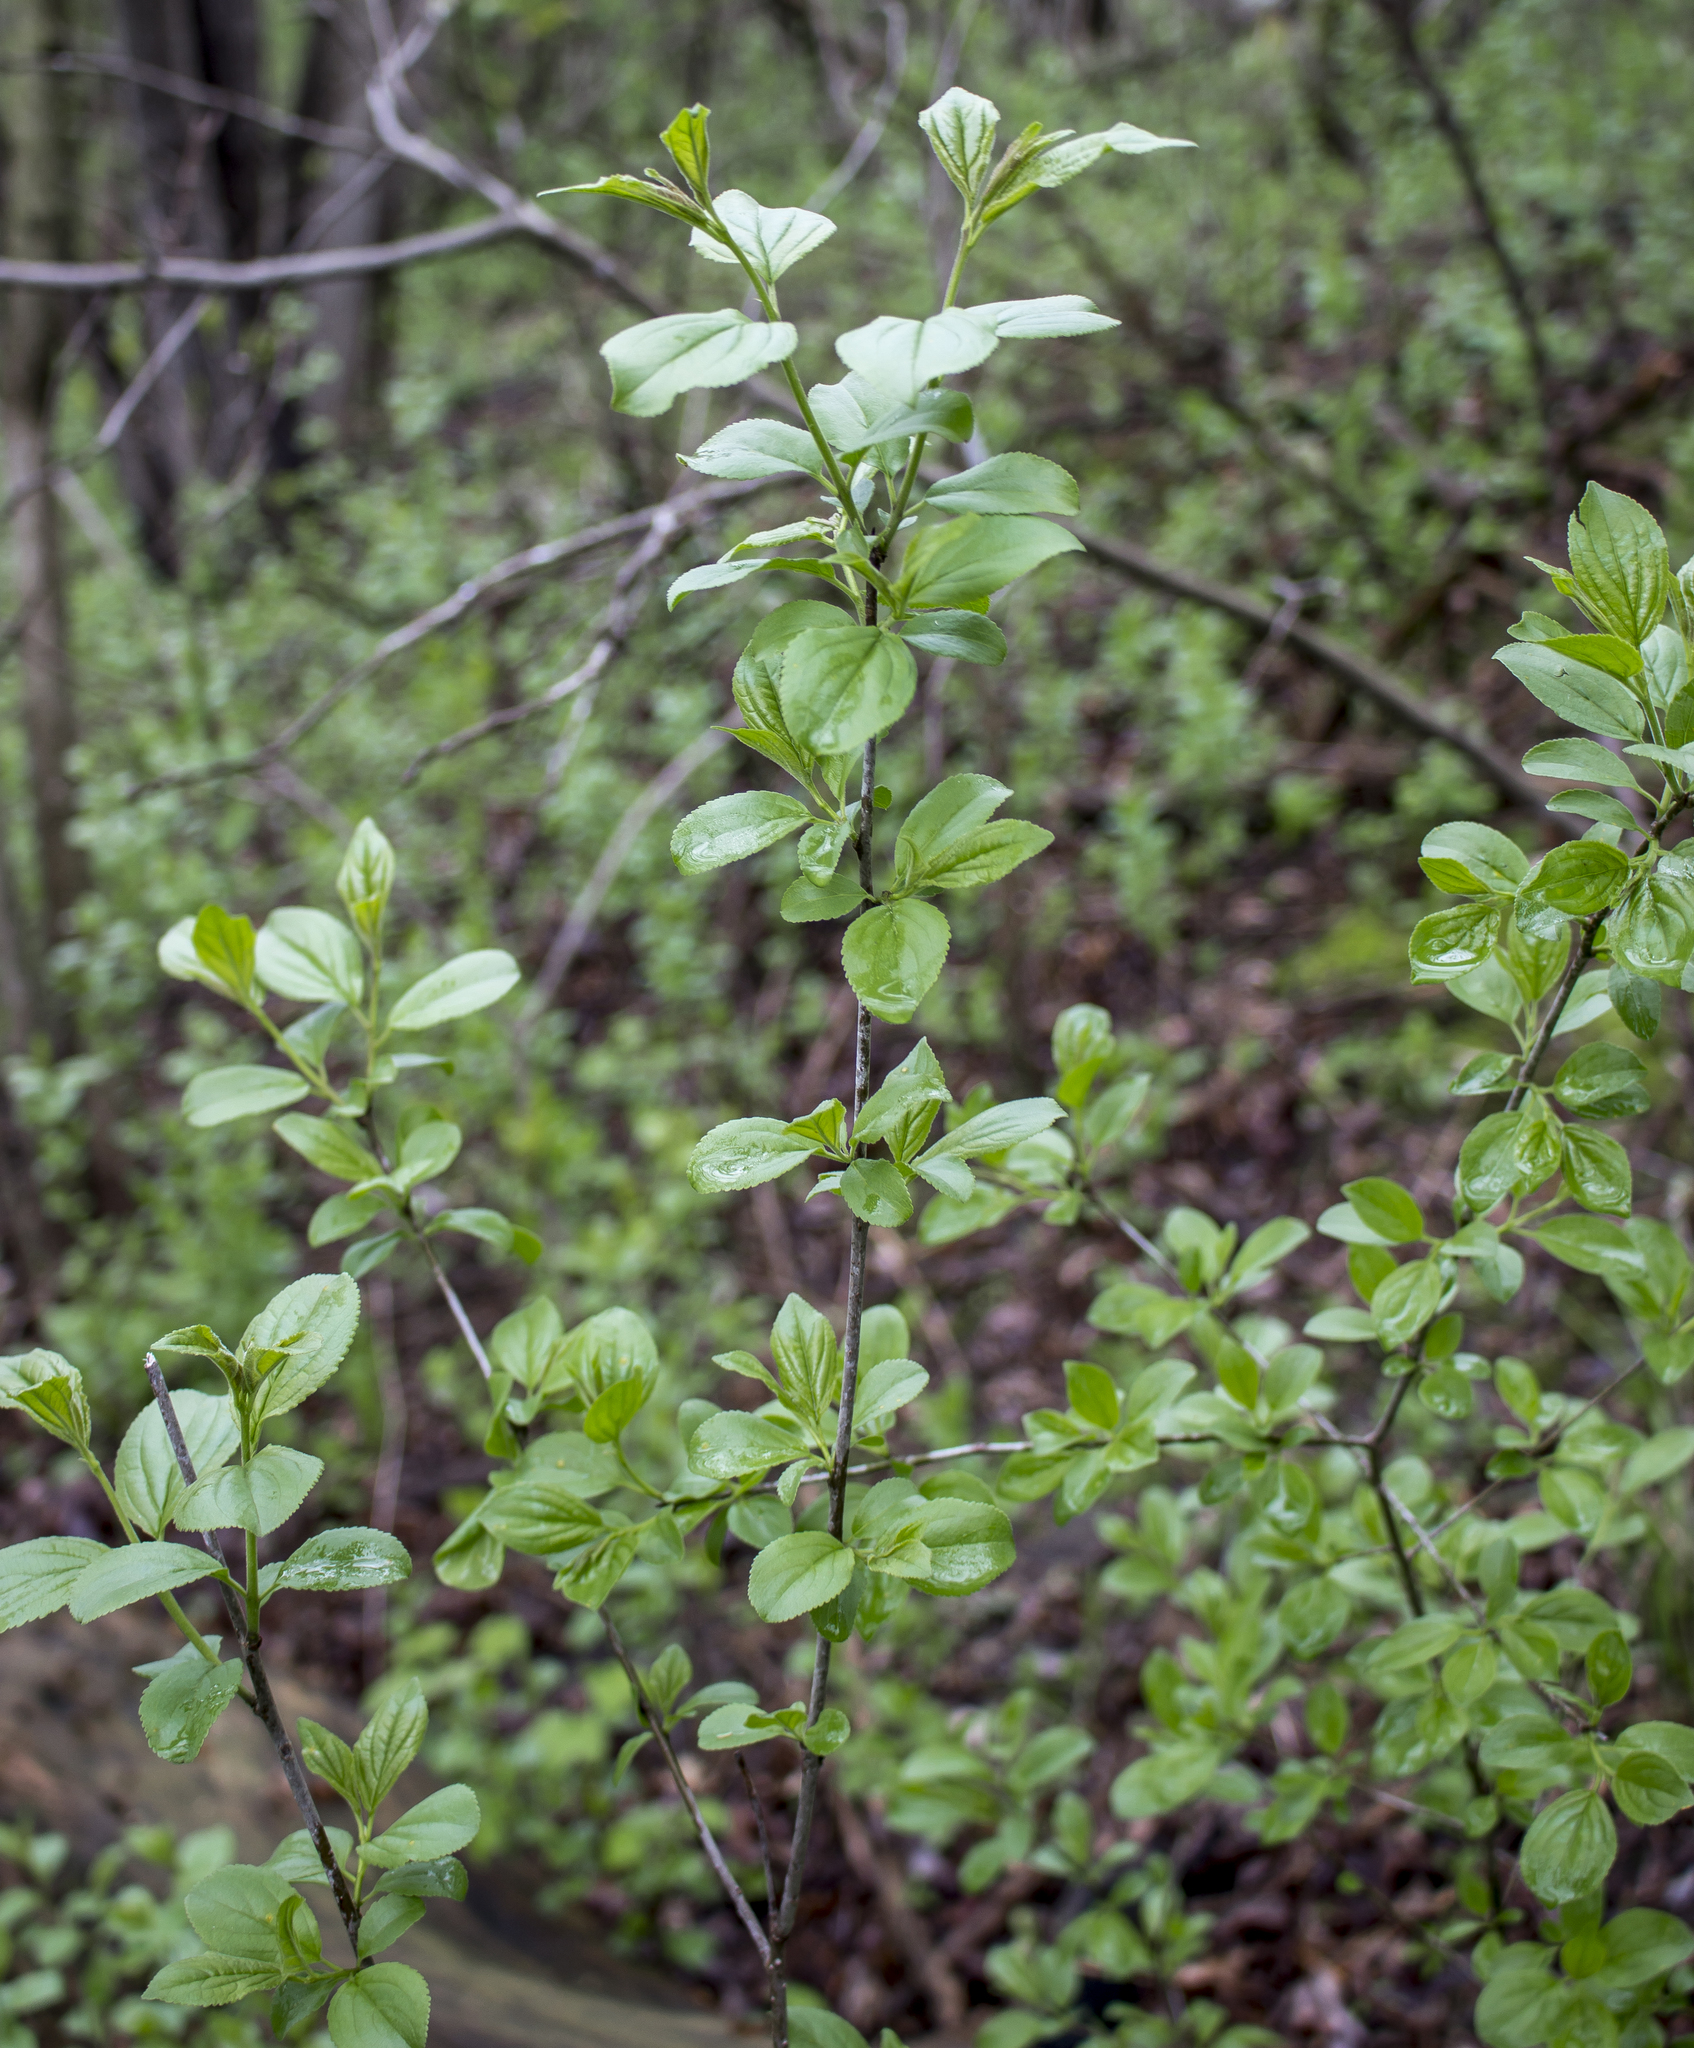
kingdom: Plantae
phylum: Tracheophyta
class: Magnoliopsida
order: Rosales
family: Rhamnaceae
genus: Rhamnus
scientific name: Rhamnus cathartica
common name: Common buckthorn
